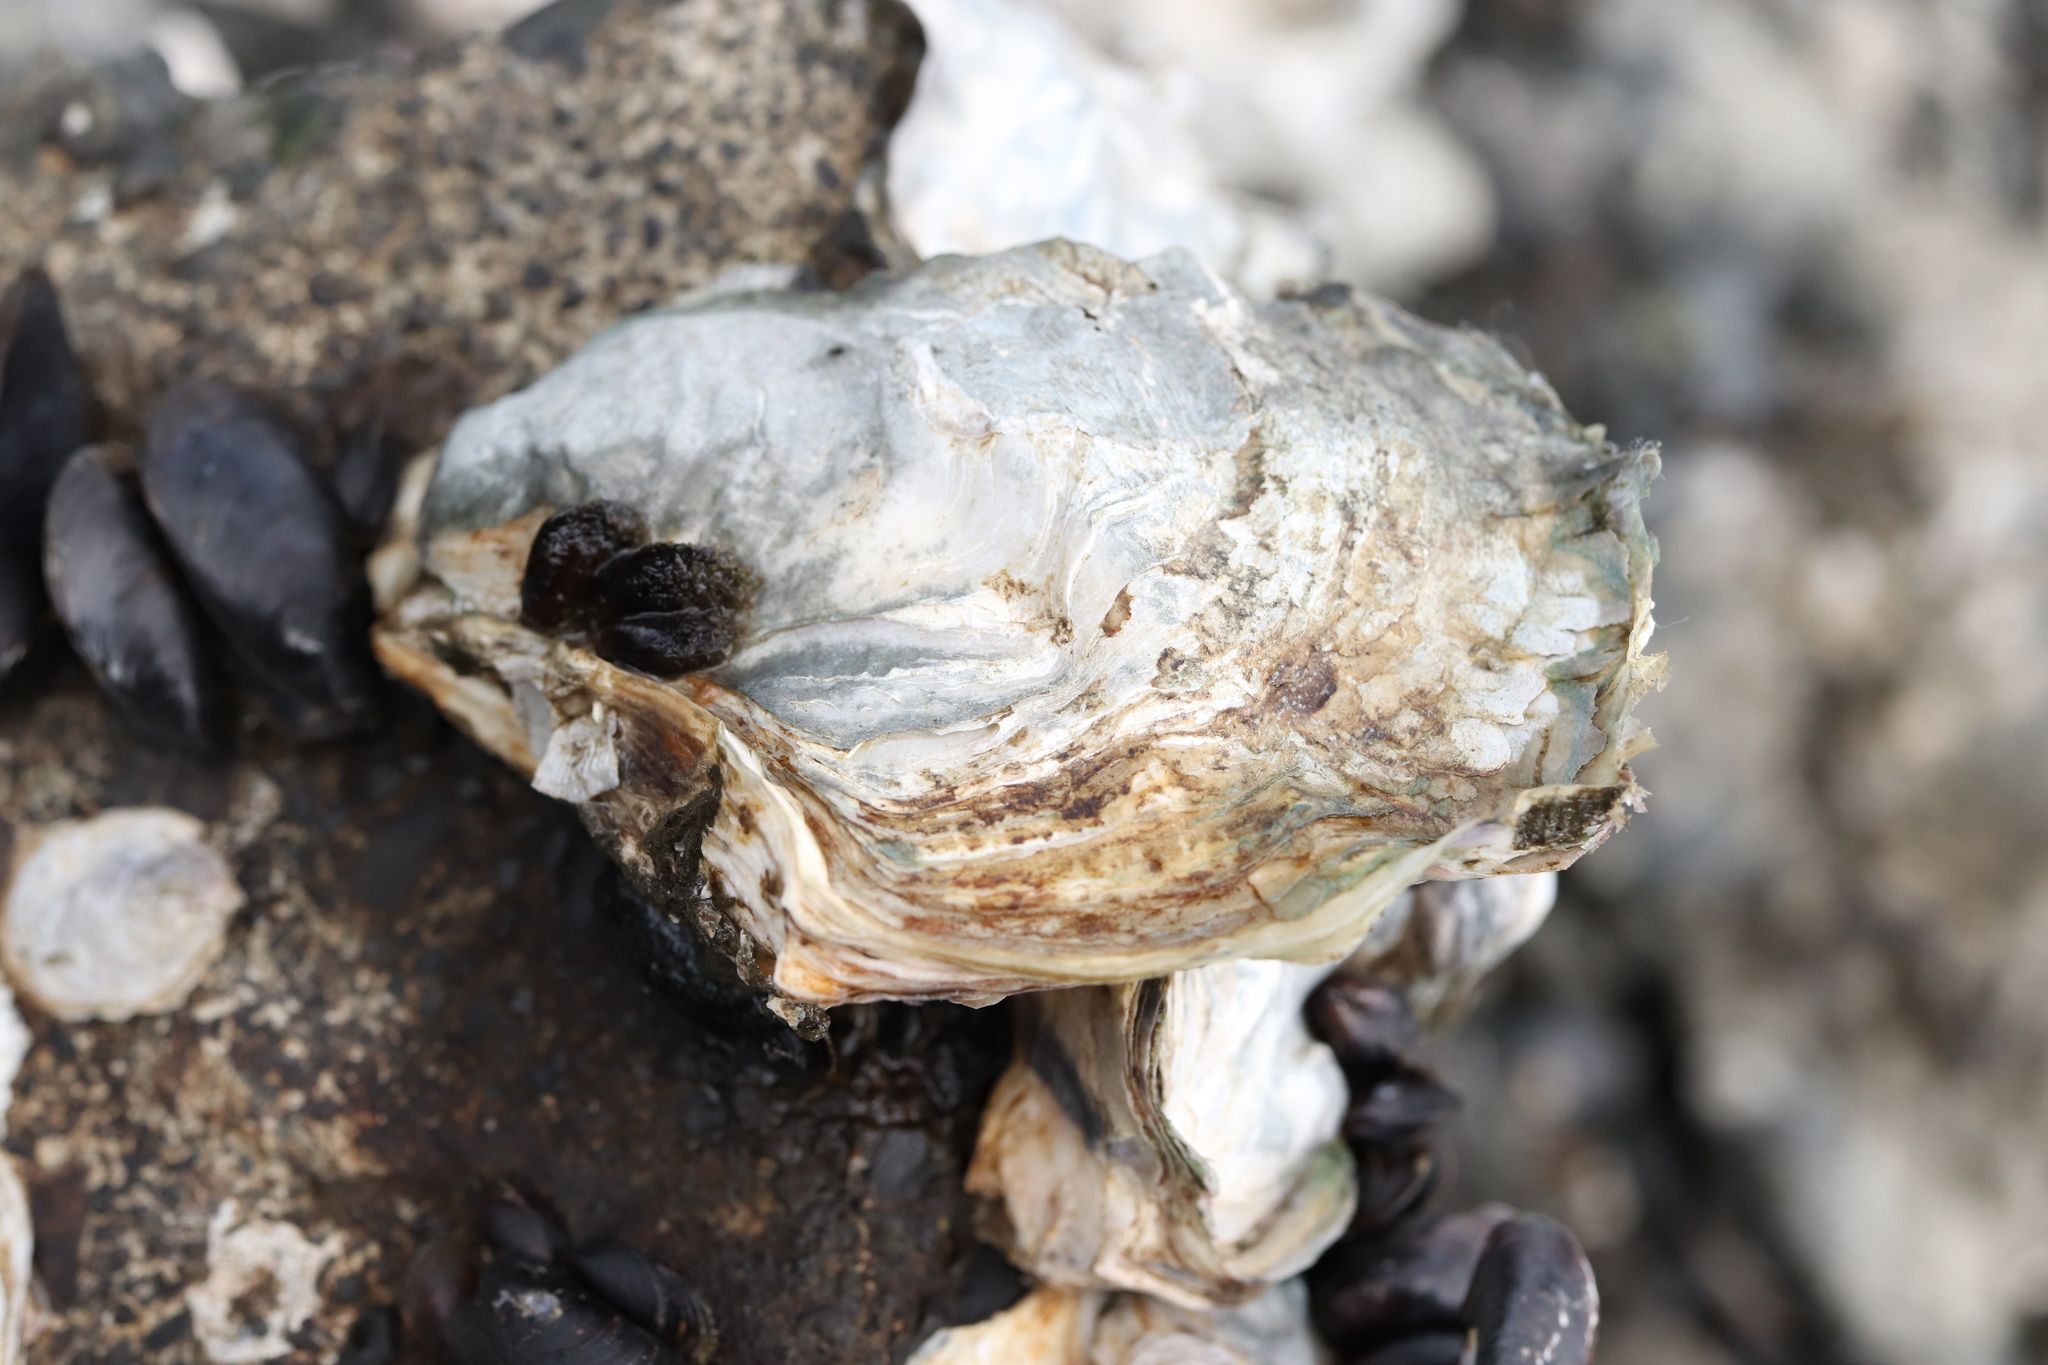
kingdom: Animalia
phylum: Mollusca
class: Bivalvia
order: Ostreida
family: Ostreidae
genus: Magallana
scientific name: Magallana gigas
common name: Pacific oyster
